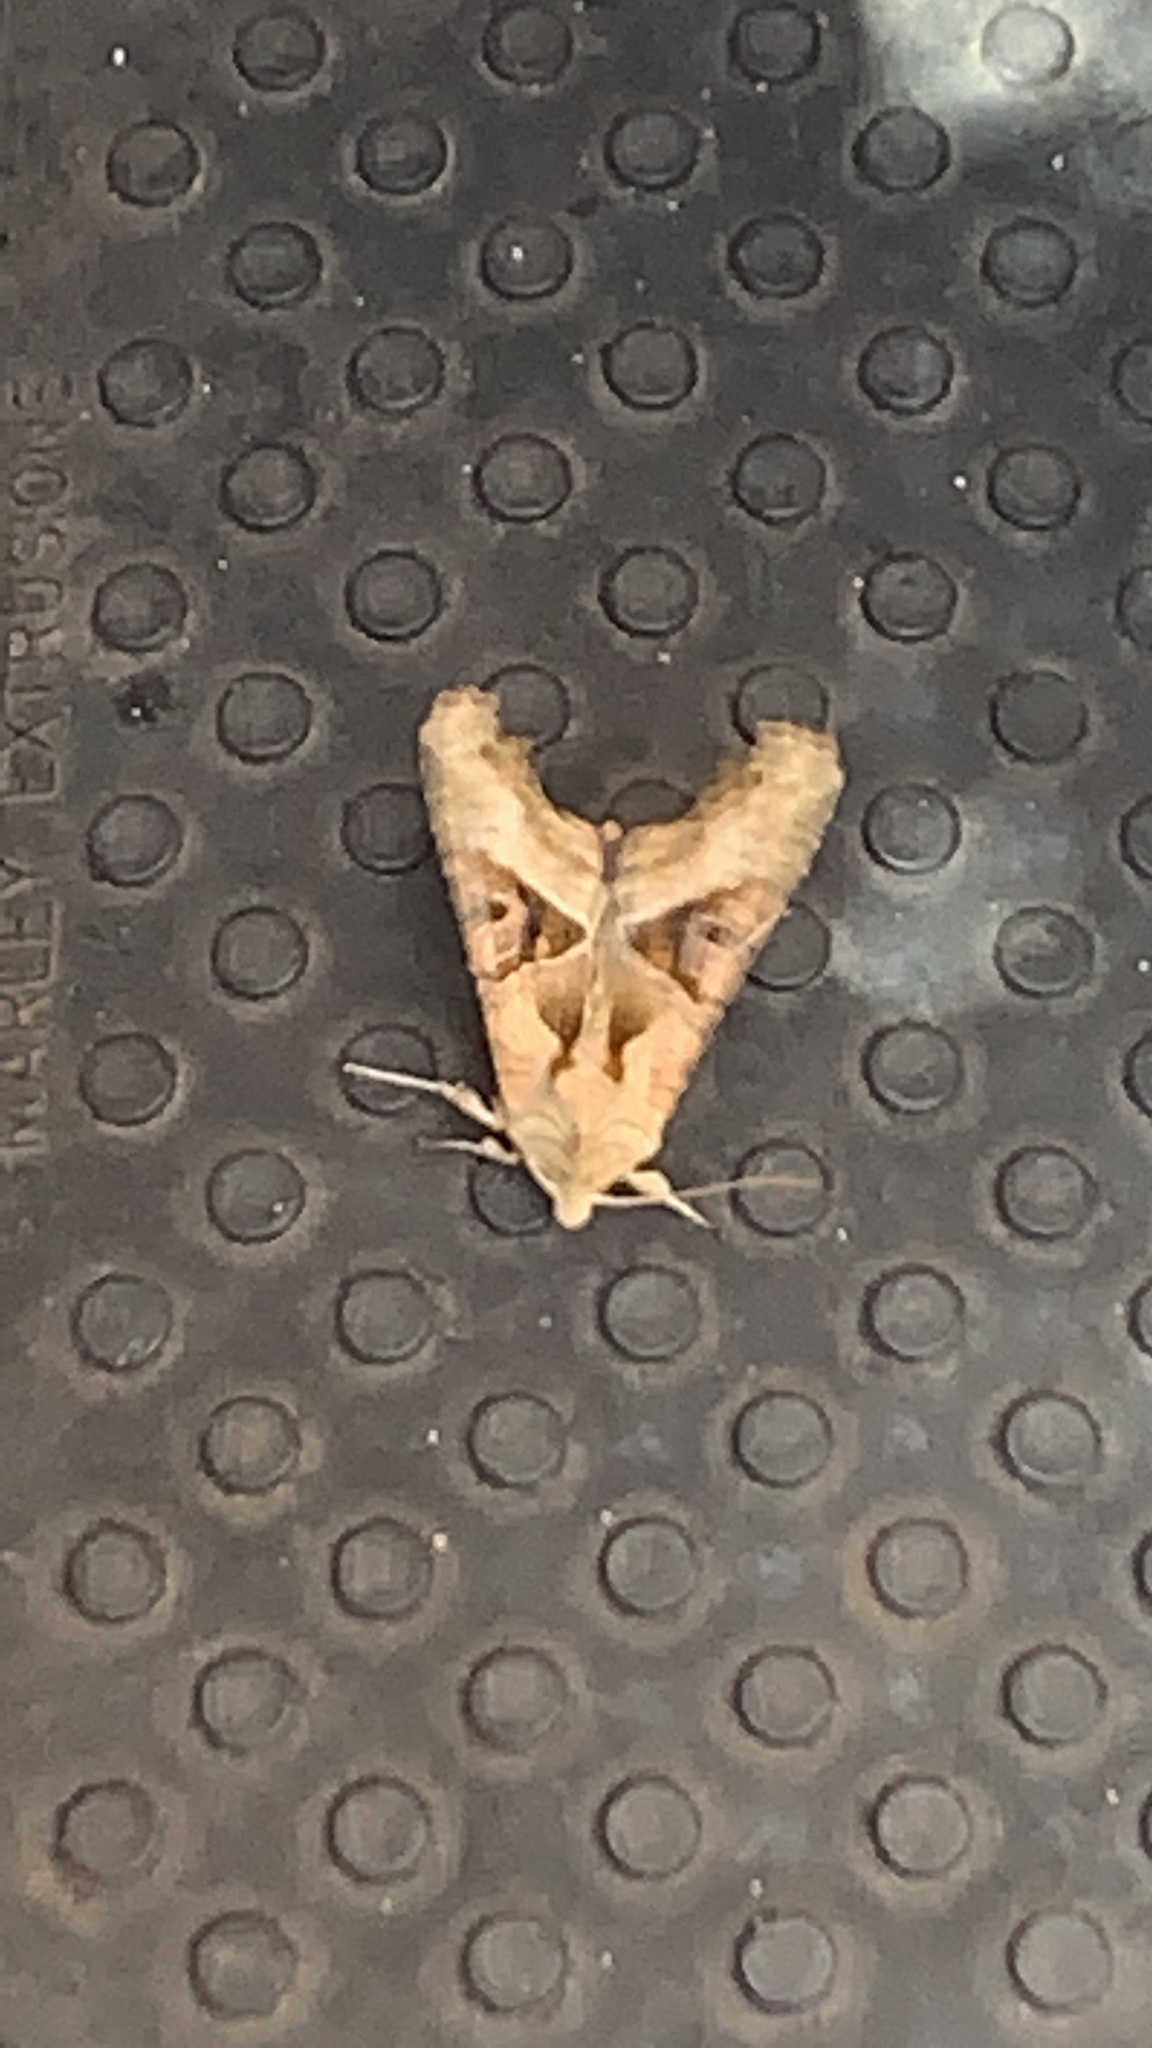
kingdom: Animalia
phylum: Arthropoda
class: Insecta
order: Lepidoptera
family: Noctuidae
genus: Phlogophora
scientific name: Phlogophora meticulosa
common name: Angle shades
